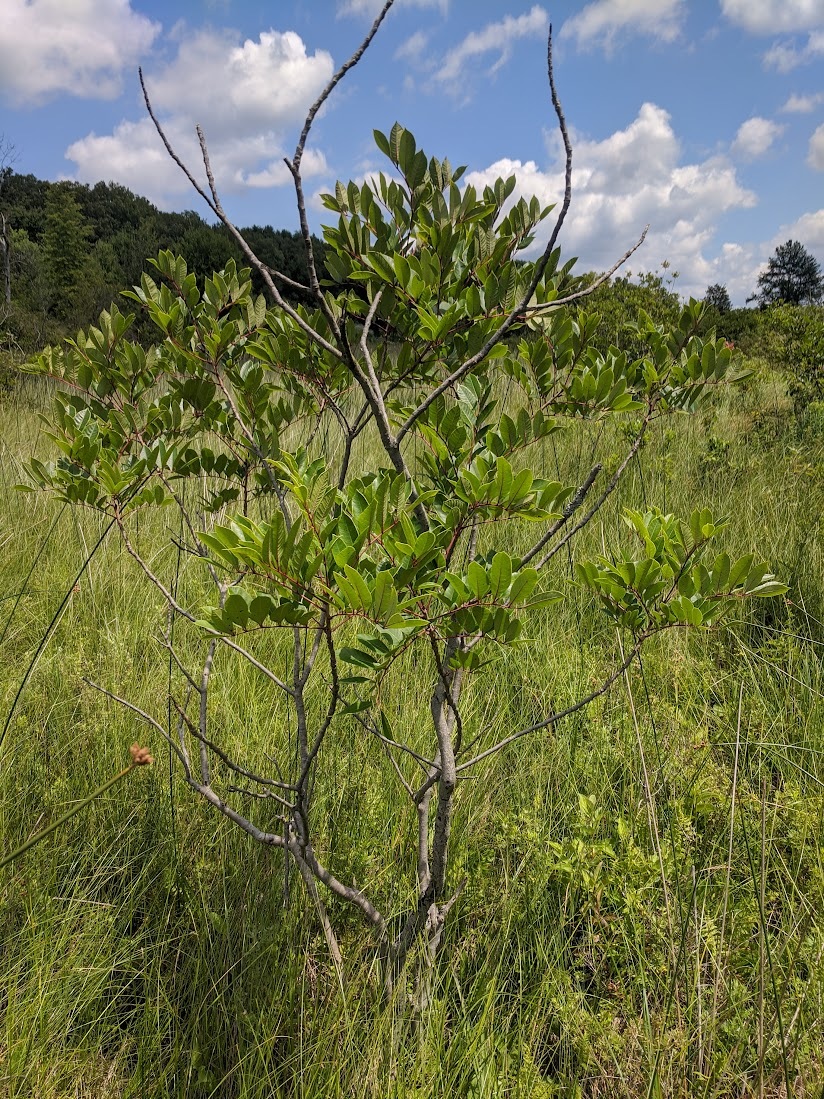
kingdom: Plantae
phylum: Tracheophyta
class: Magnoliopsida
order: Sapindales
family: Anacardiaceae
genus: Toxicodendron
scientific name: Toxicodendron vernix
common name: Poison sumac
